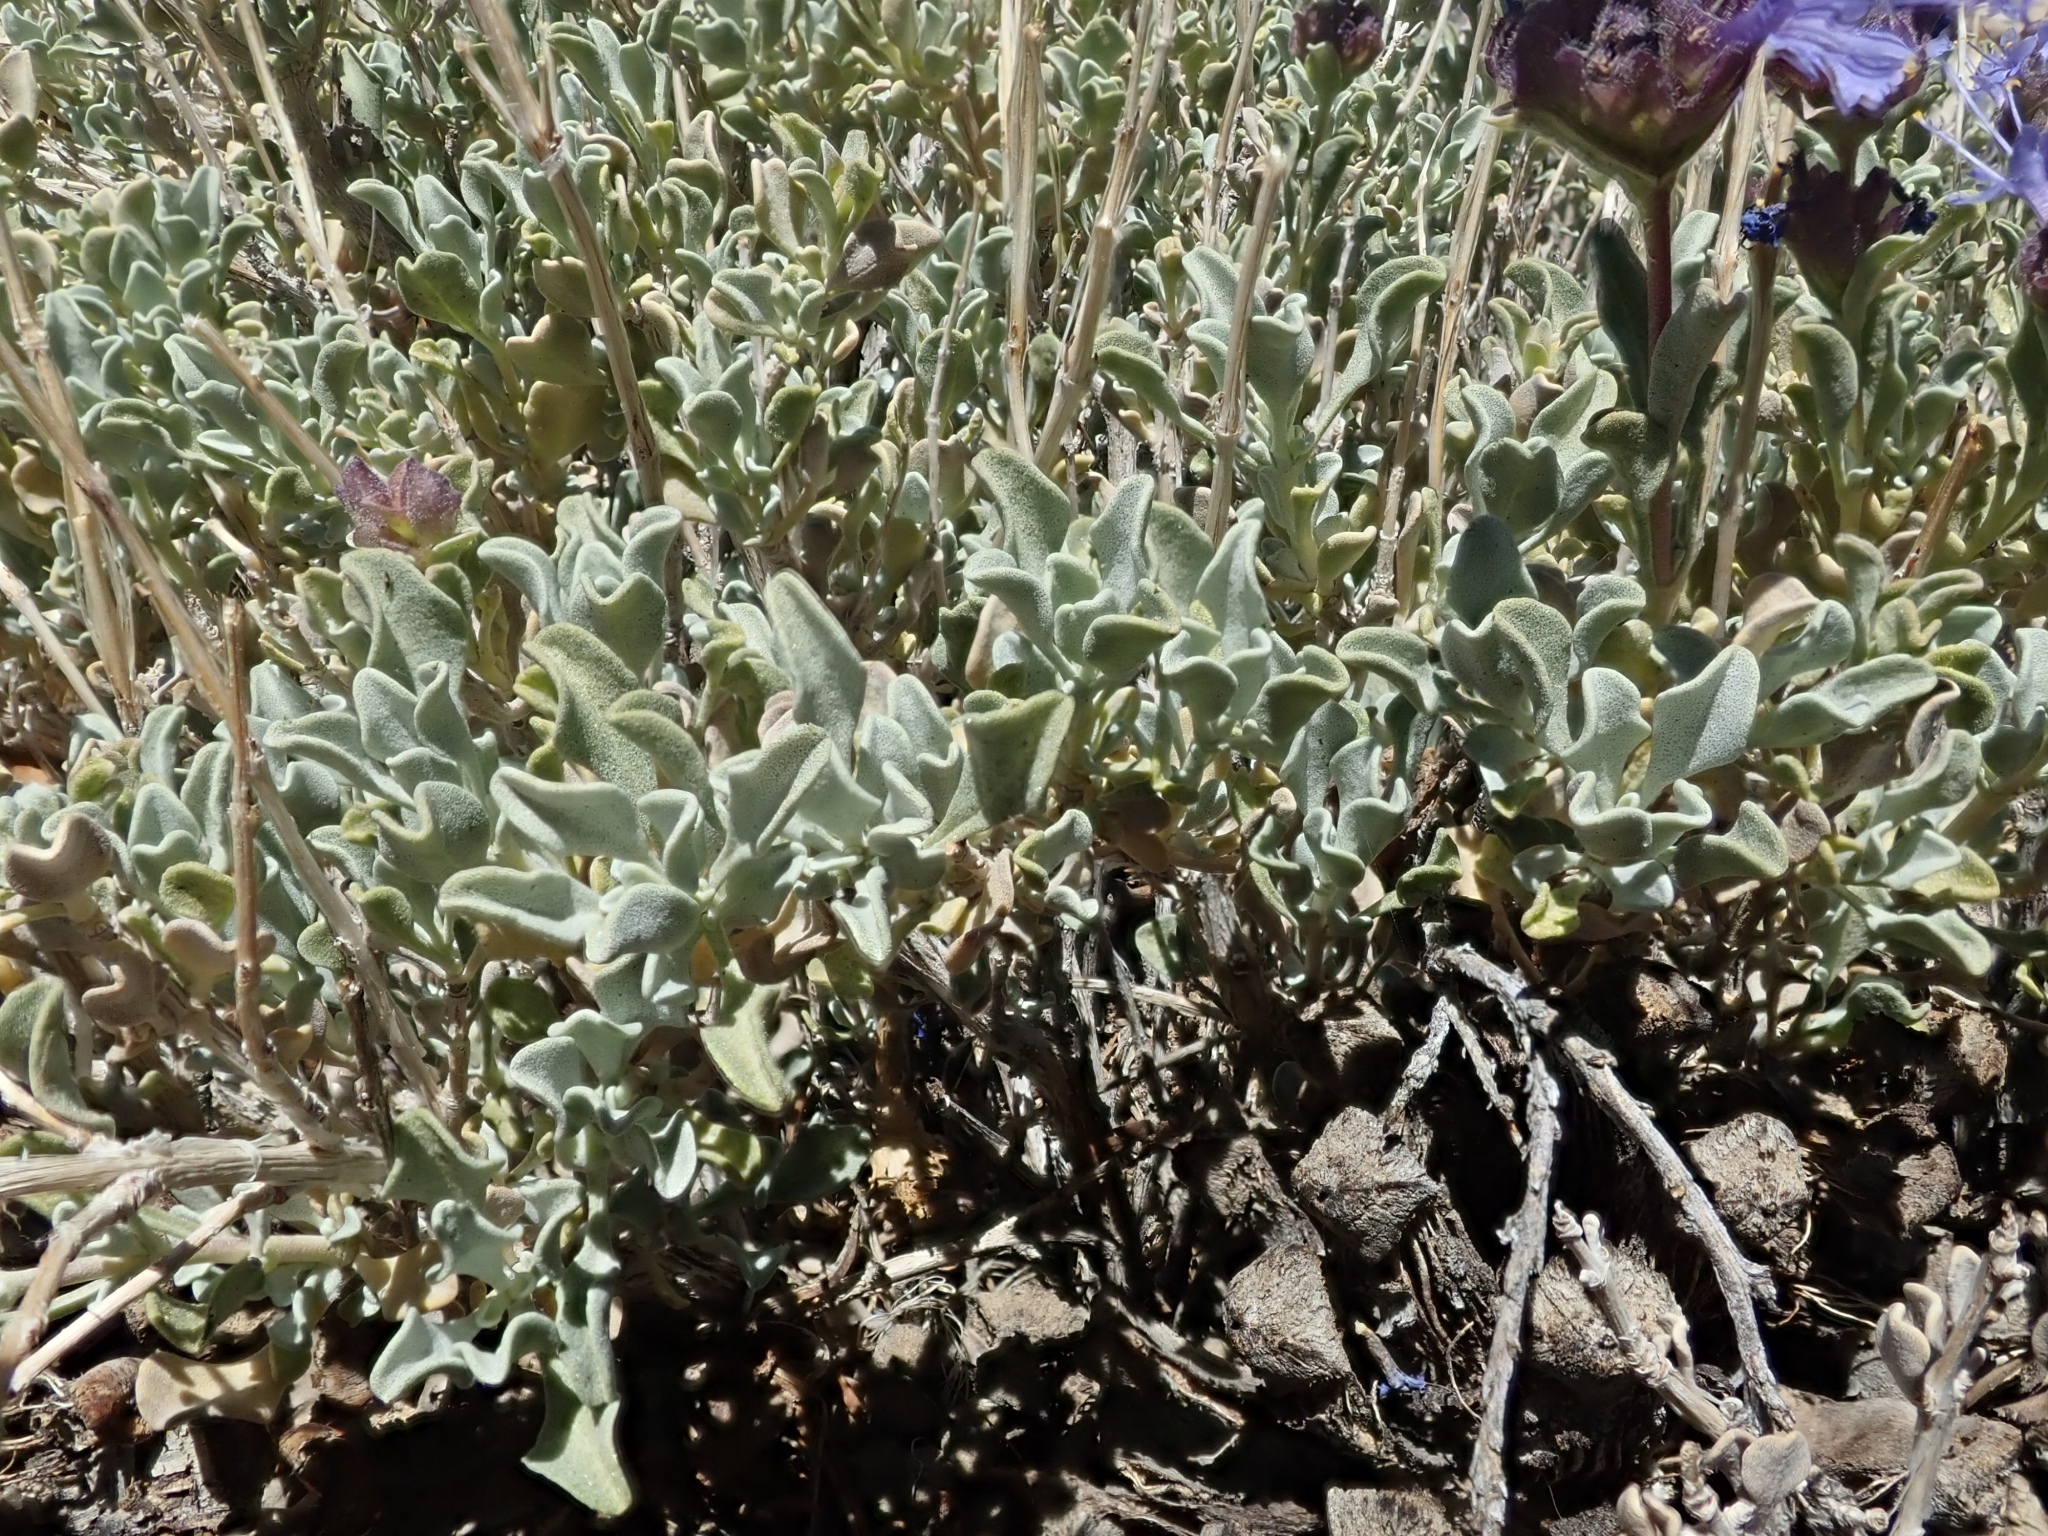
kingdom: Plantae
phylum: Tracheophyta
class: Magnoliopsida
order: Lamiales
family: Lamiaceae
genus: Salvia
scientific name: Salvia dorrii
